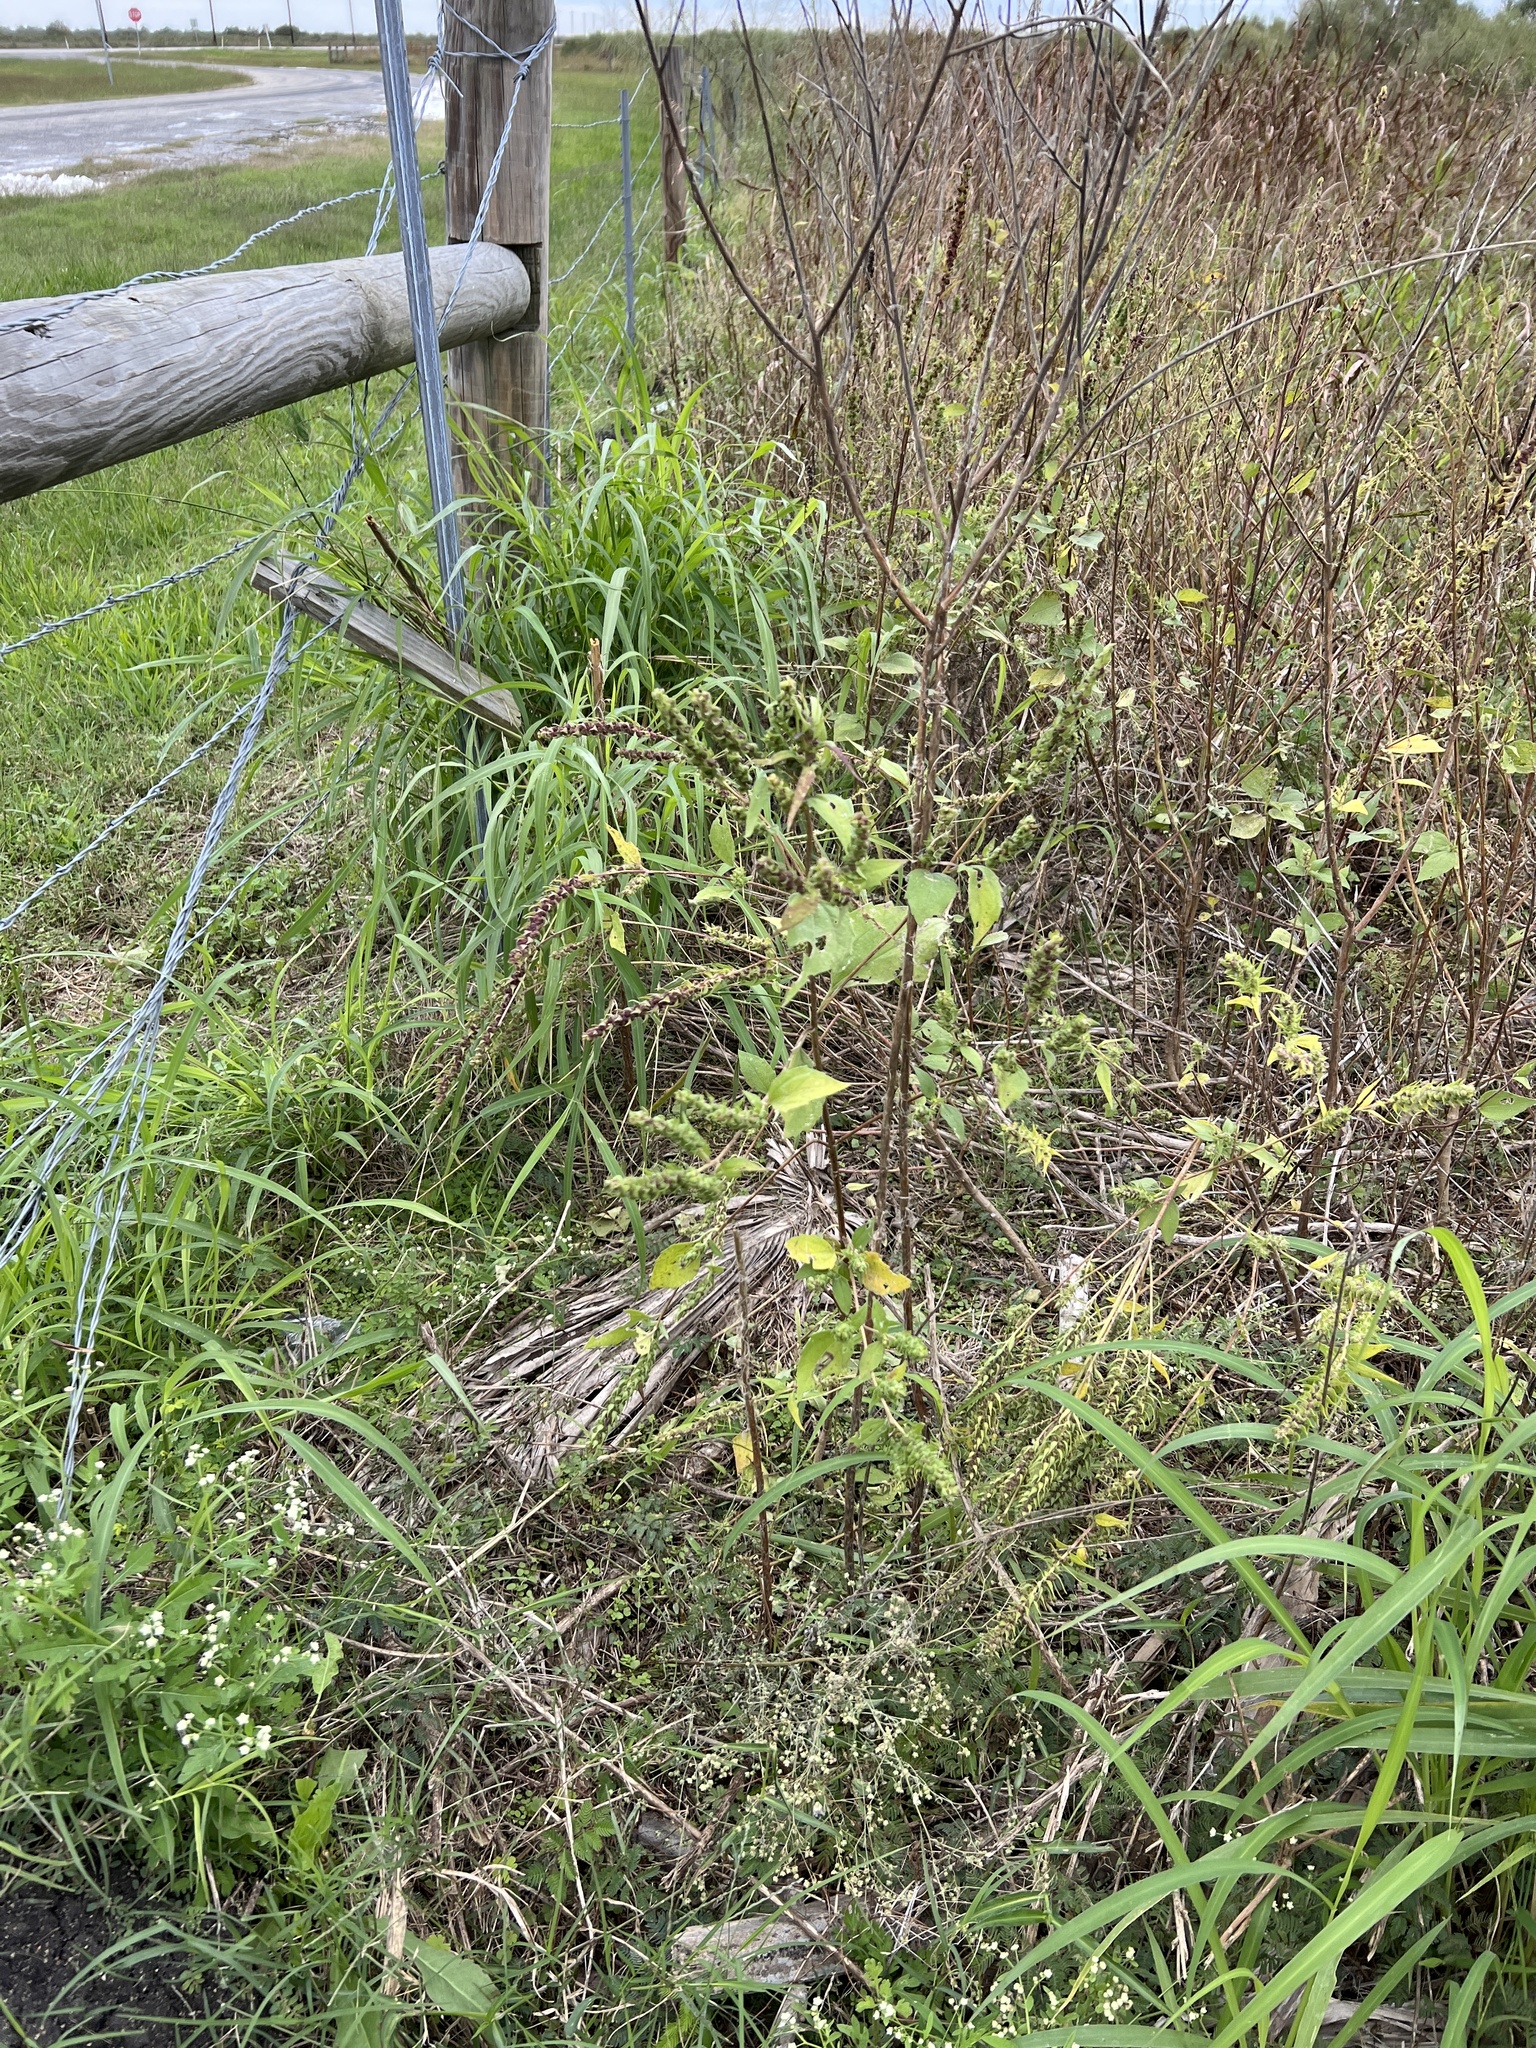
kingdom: Plantae
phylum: Tracheophyta
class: Magnoliopsida
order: Asterales
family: Asteraceae
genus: Iva
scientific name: Iva annua
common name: Marsh-elder
